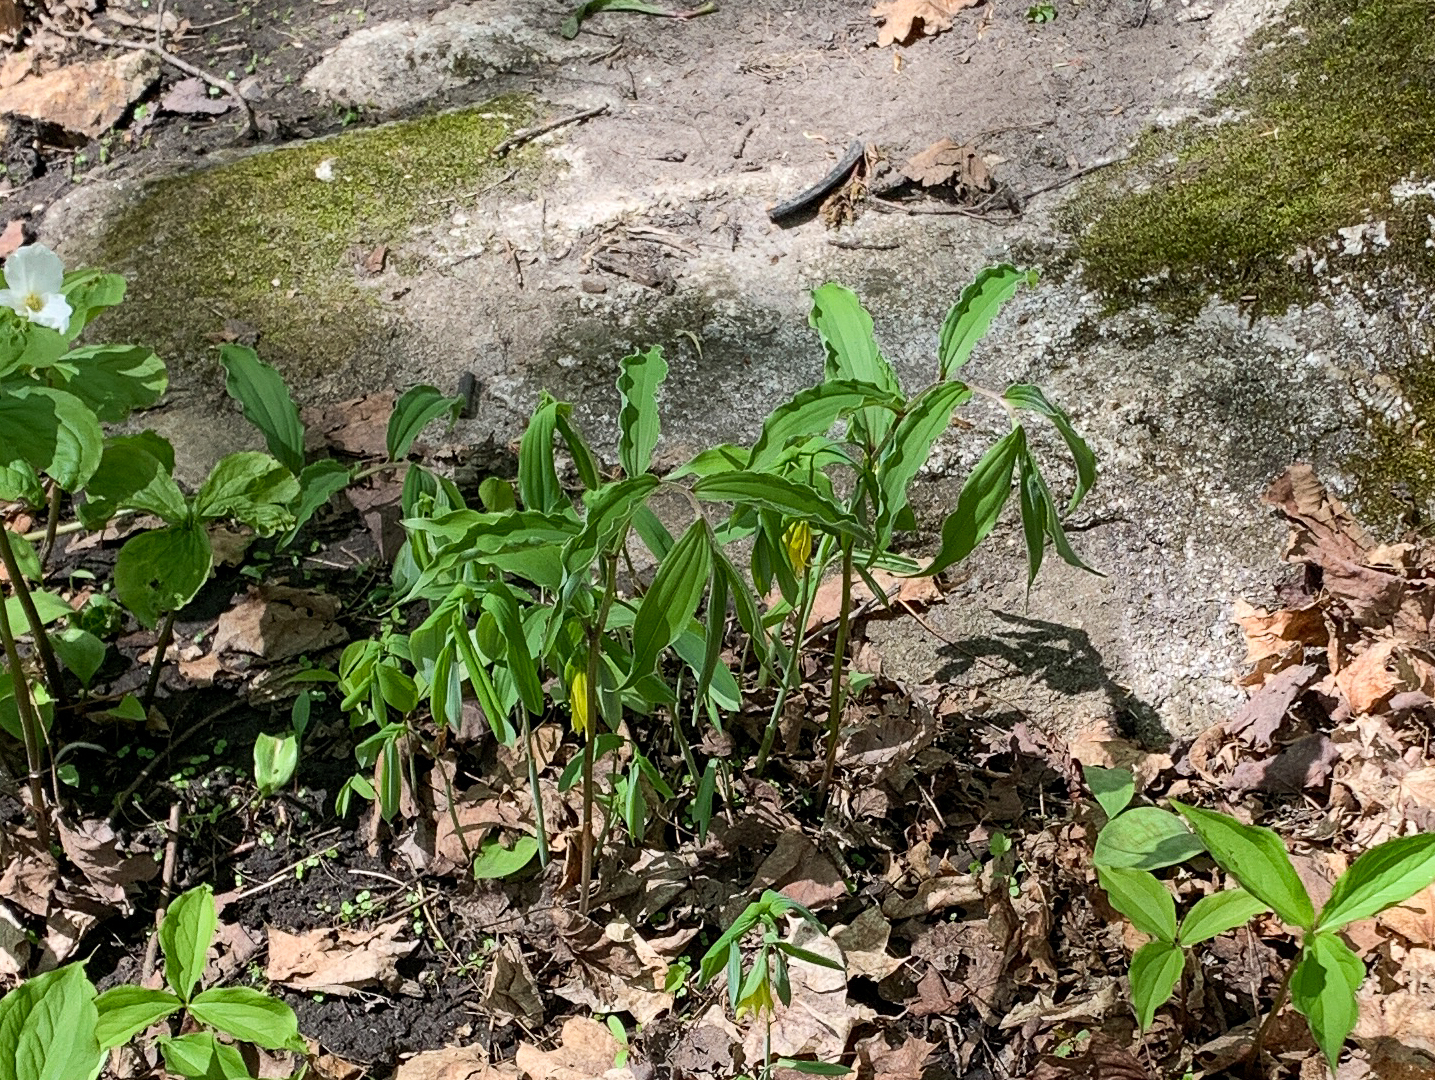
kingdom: Plantae
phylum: Tracheophyta
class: Liliopsida
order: Liliales
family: Colchicaceae
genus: Uvularia
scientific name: Uvularia grandiflora
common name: Bellwort
